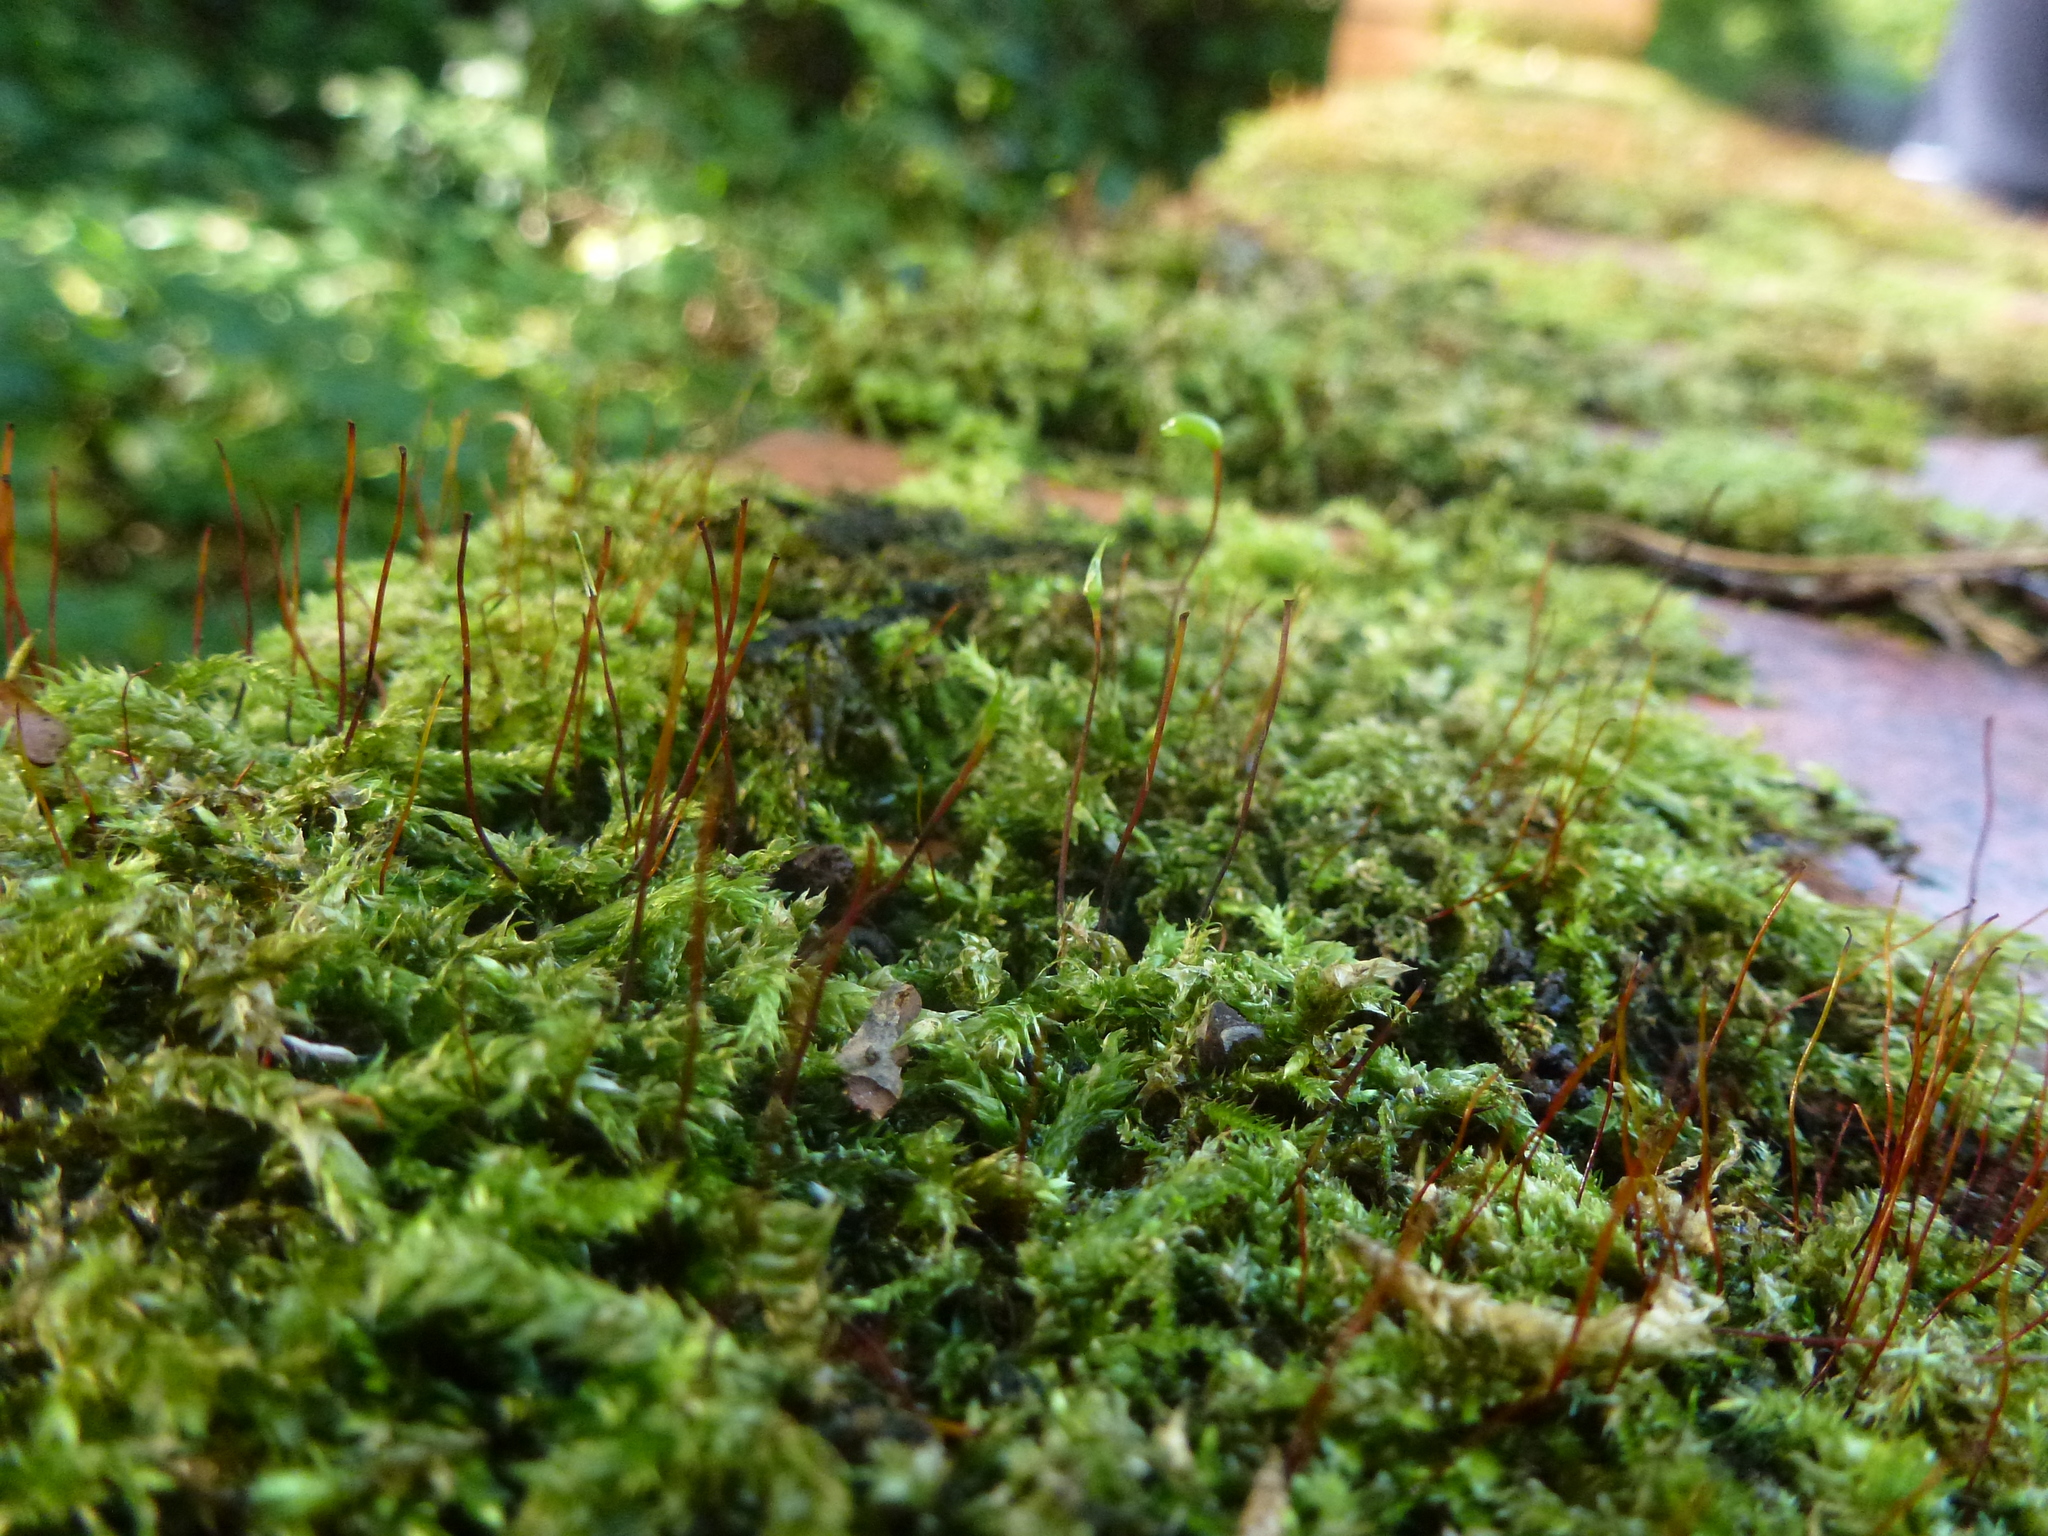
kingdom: Plantae
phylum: Bryophyta
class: Bryopsida
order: Hypnales
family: Brachytheciaceae
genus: Brachythecium
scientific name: Brachythecium rutabulum
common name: Rough-stalked feather-moss
